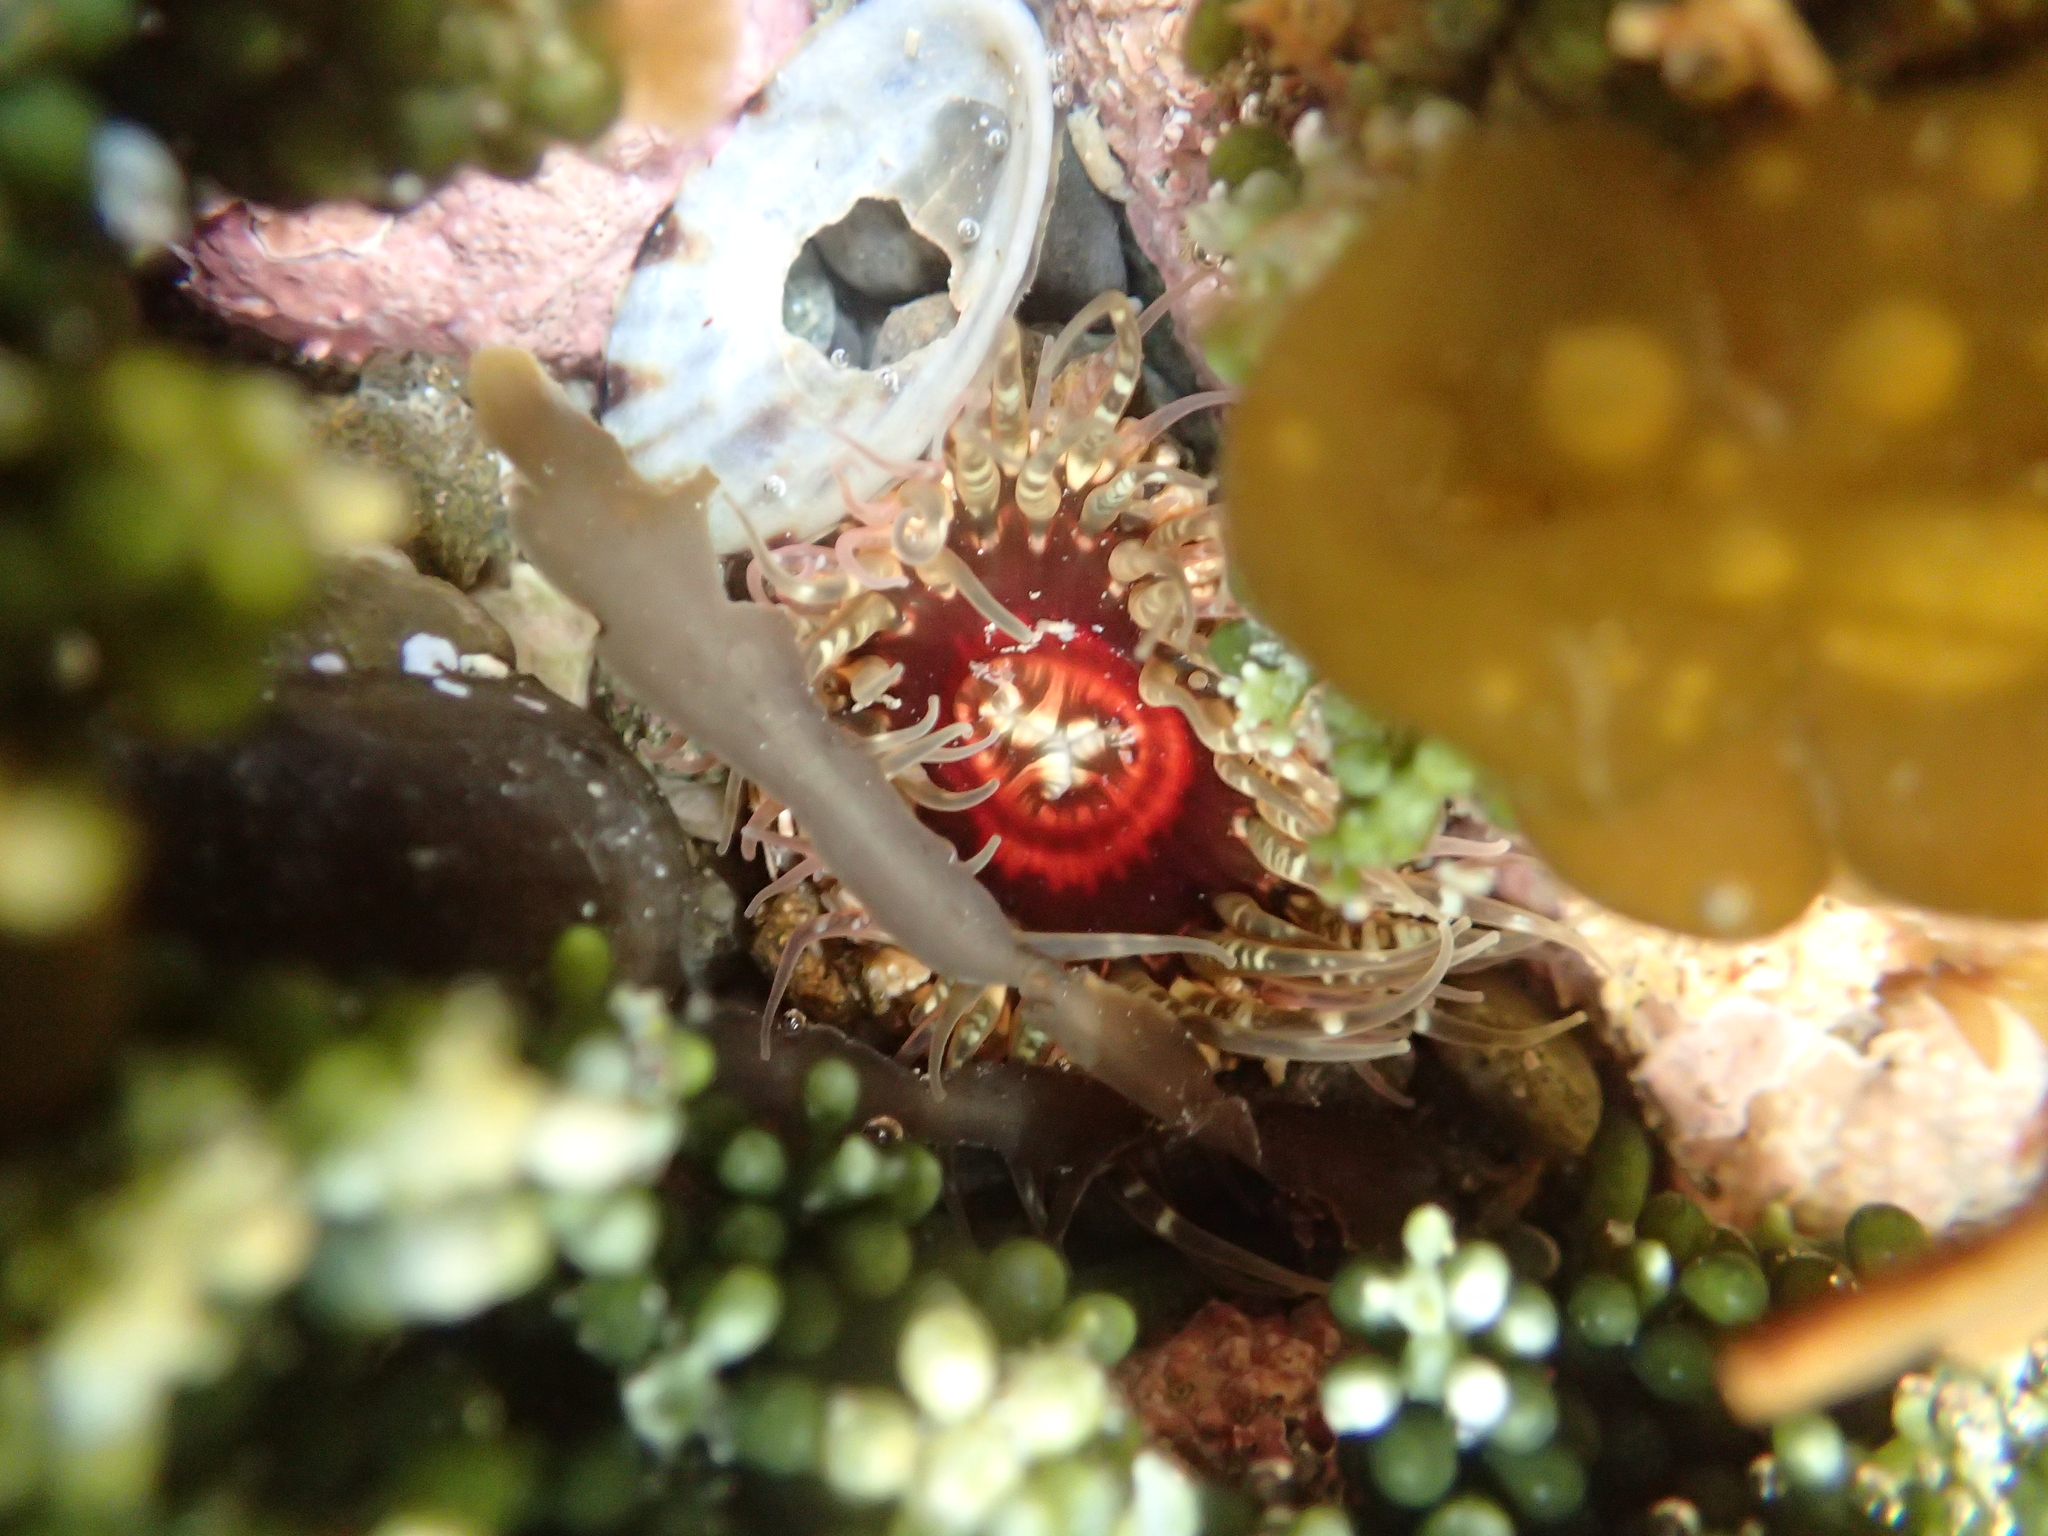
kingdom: Animalia
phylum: Cnidaria
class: Anthozoa
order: Actiniaria
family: Actiniidae
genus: Oulactis
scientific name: Oulactis muscosa
